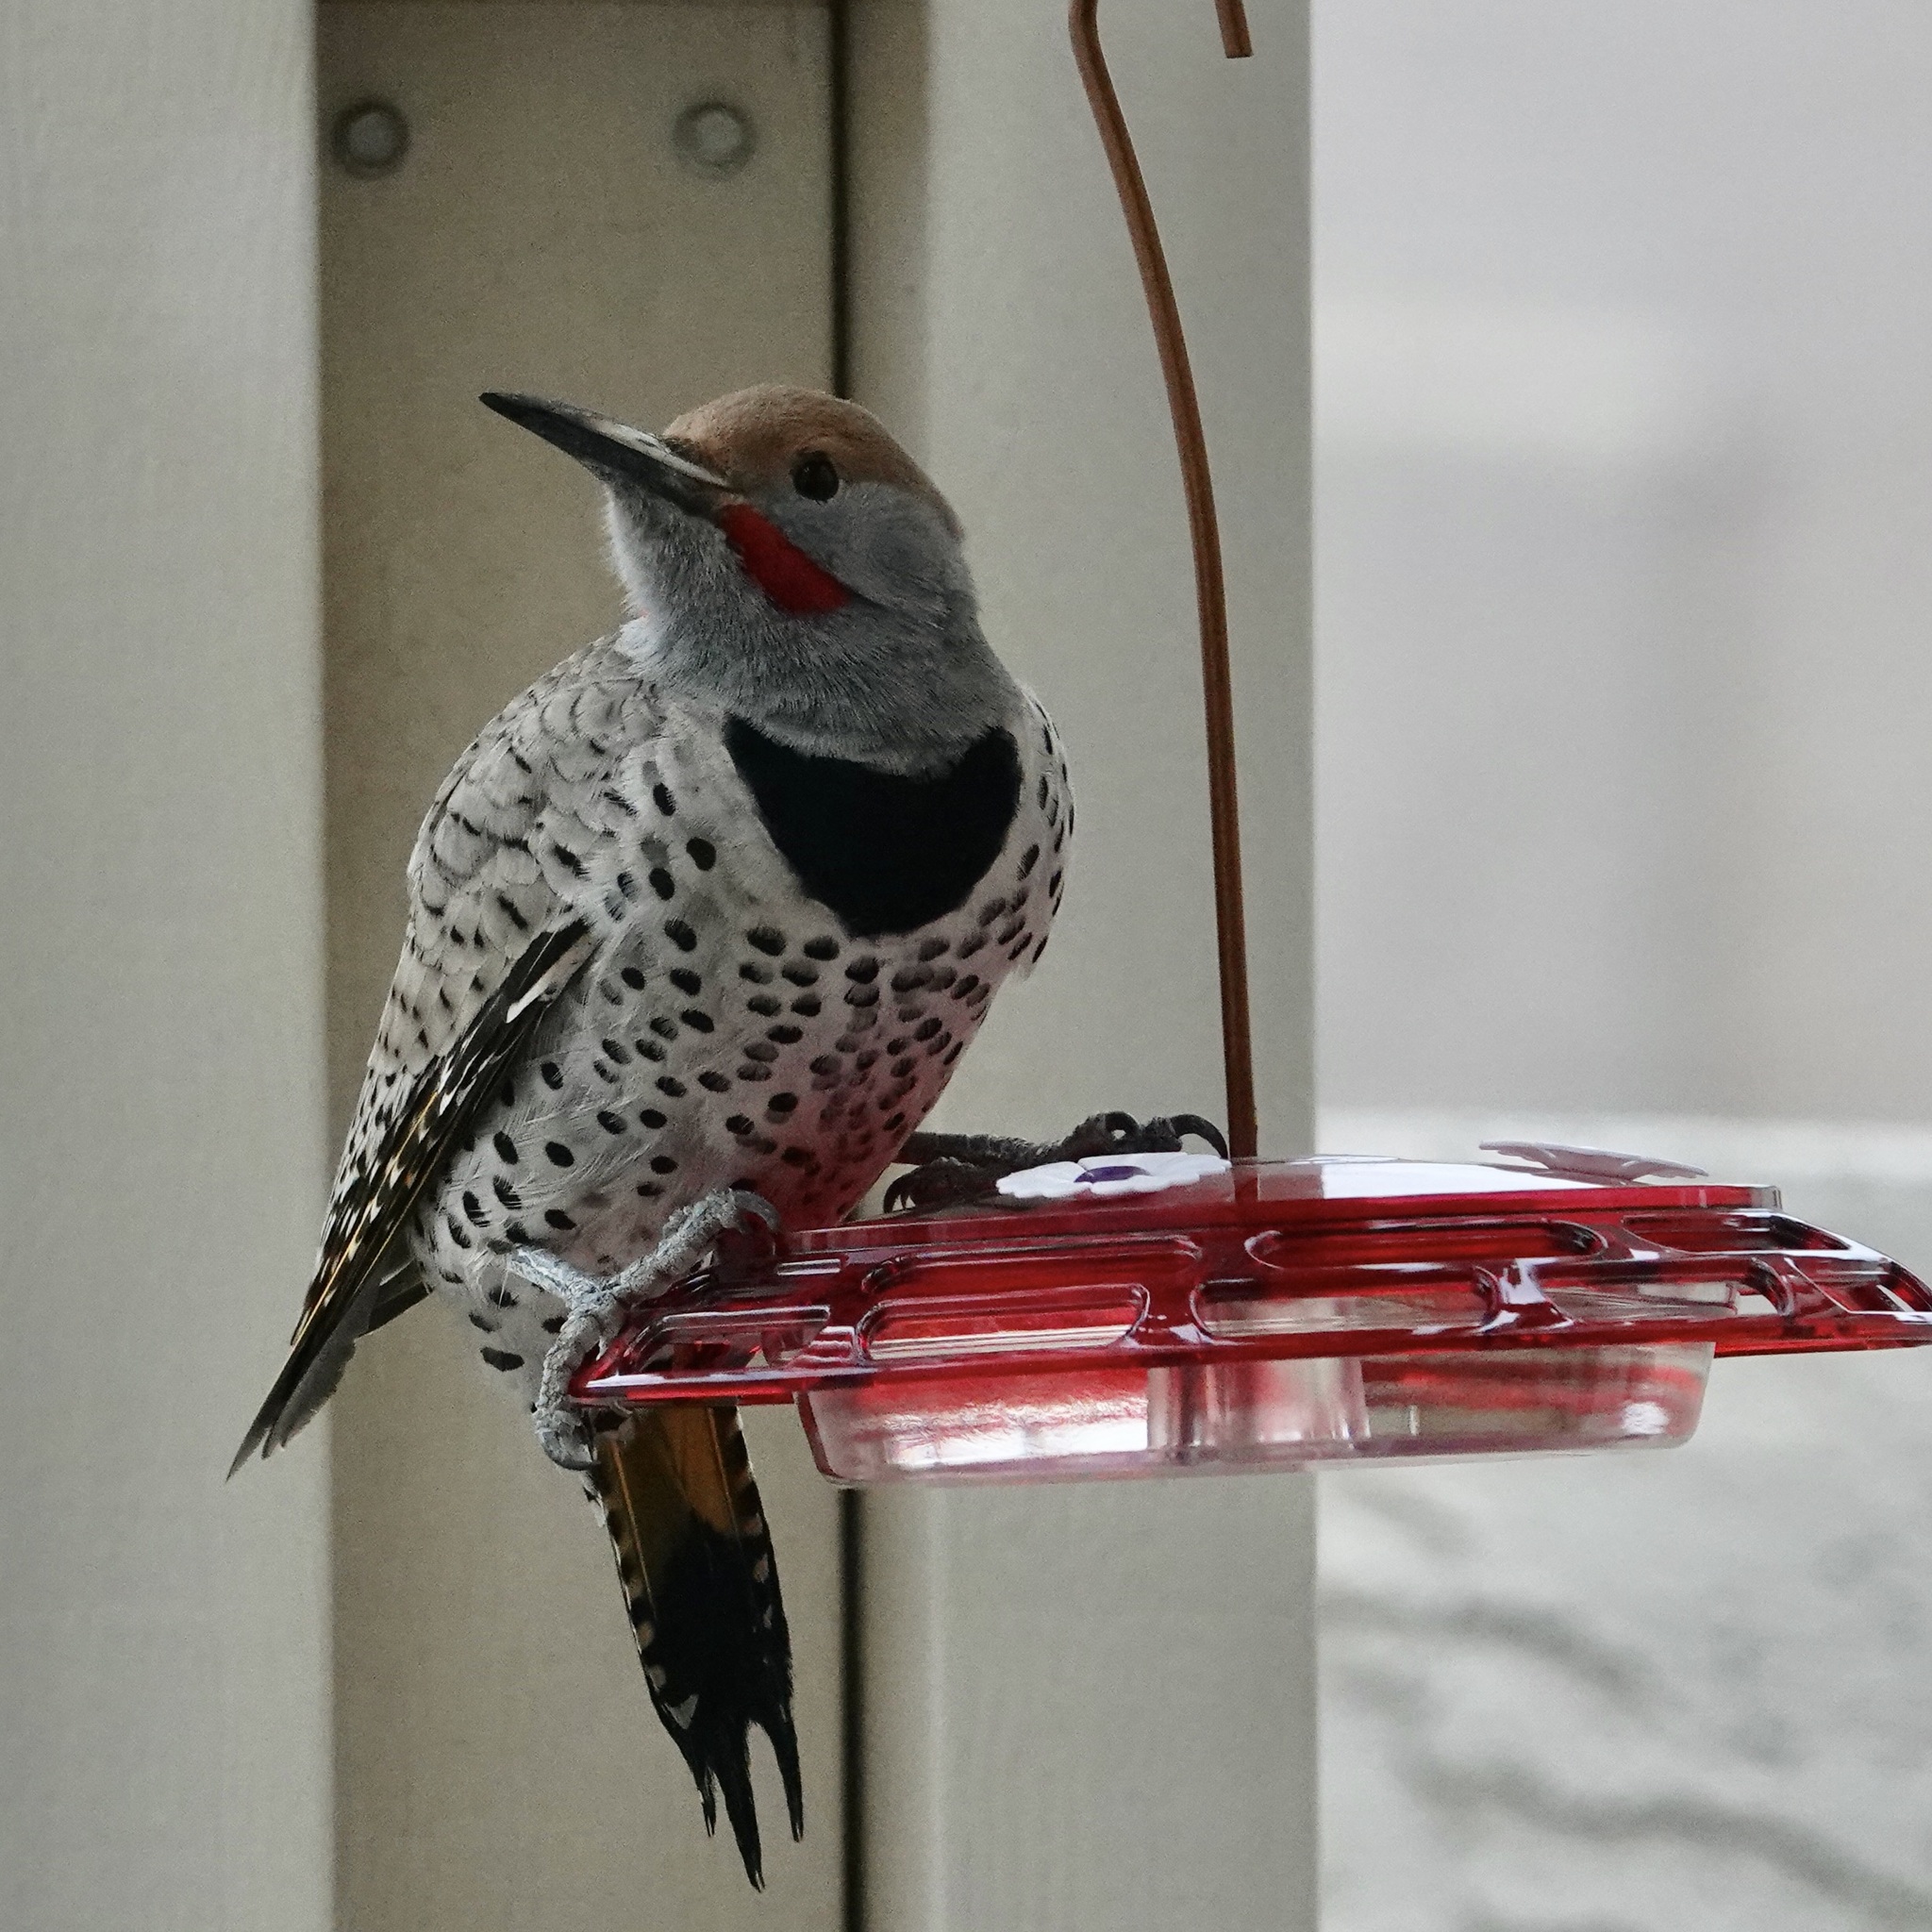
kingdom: Animalia
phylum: Chordata
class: Aves
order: Piciformes
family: Picidae
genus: Colaptes
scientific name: Colaptes chrysoides
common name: Gilded flicker
